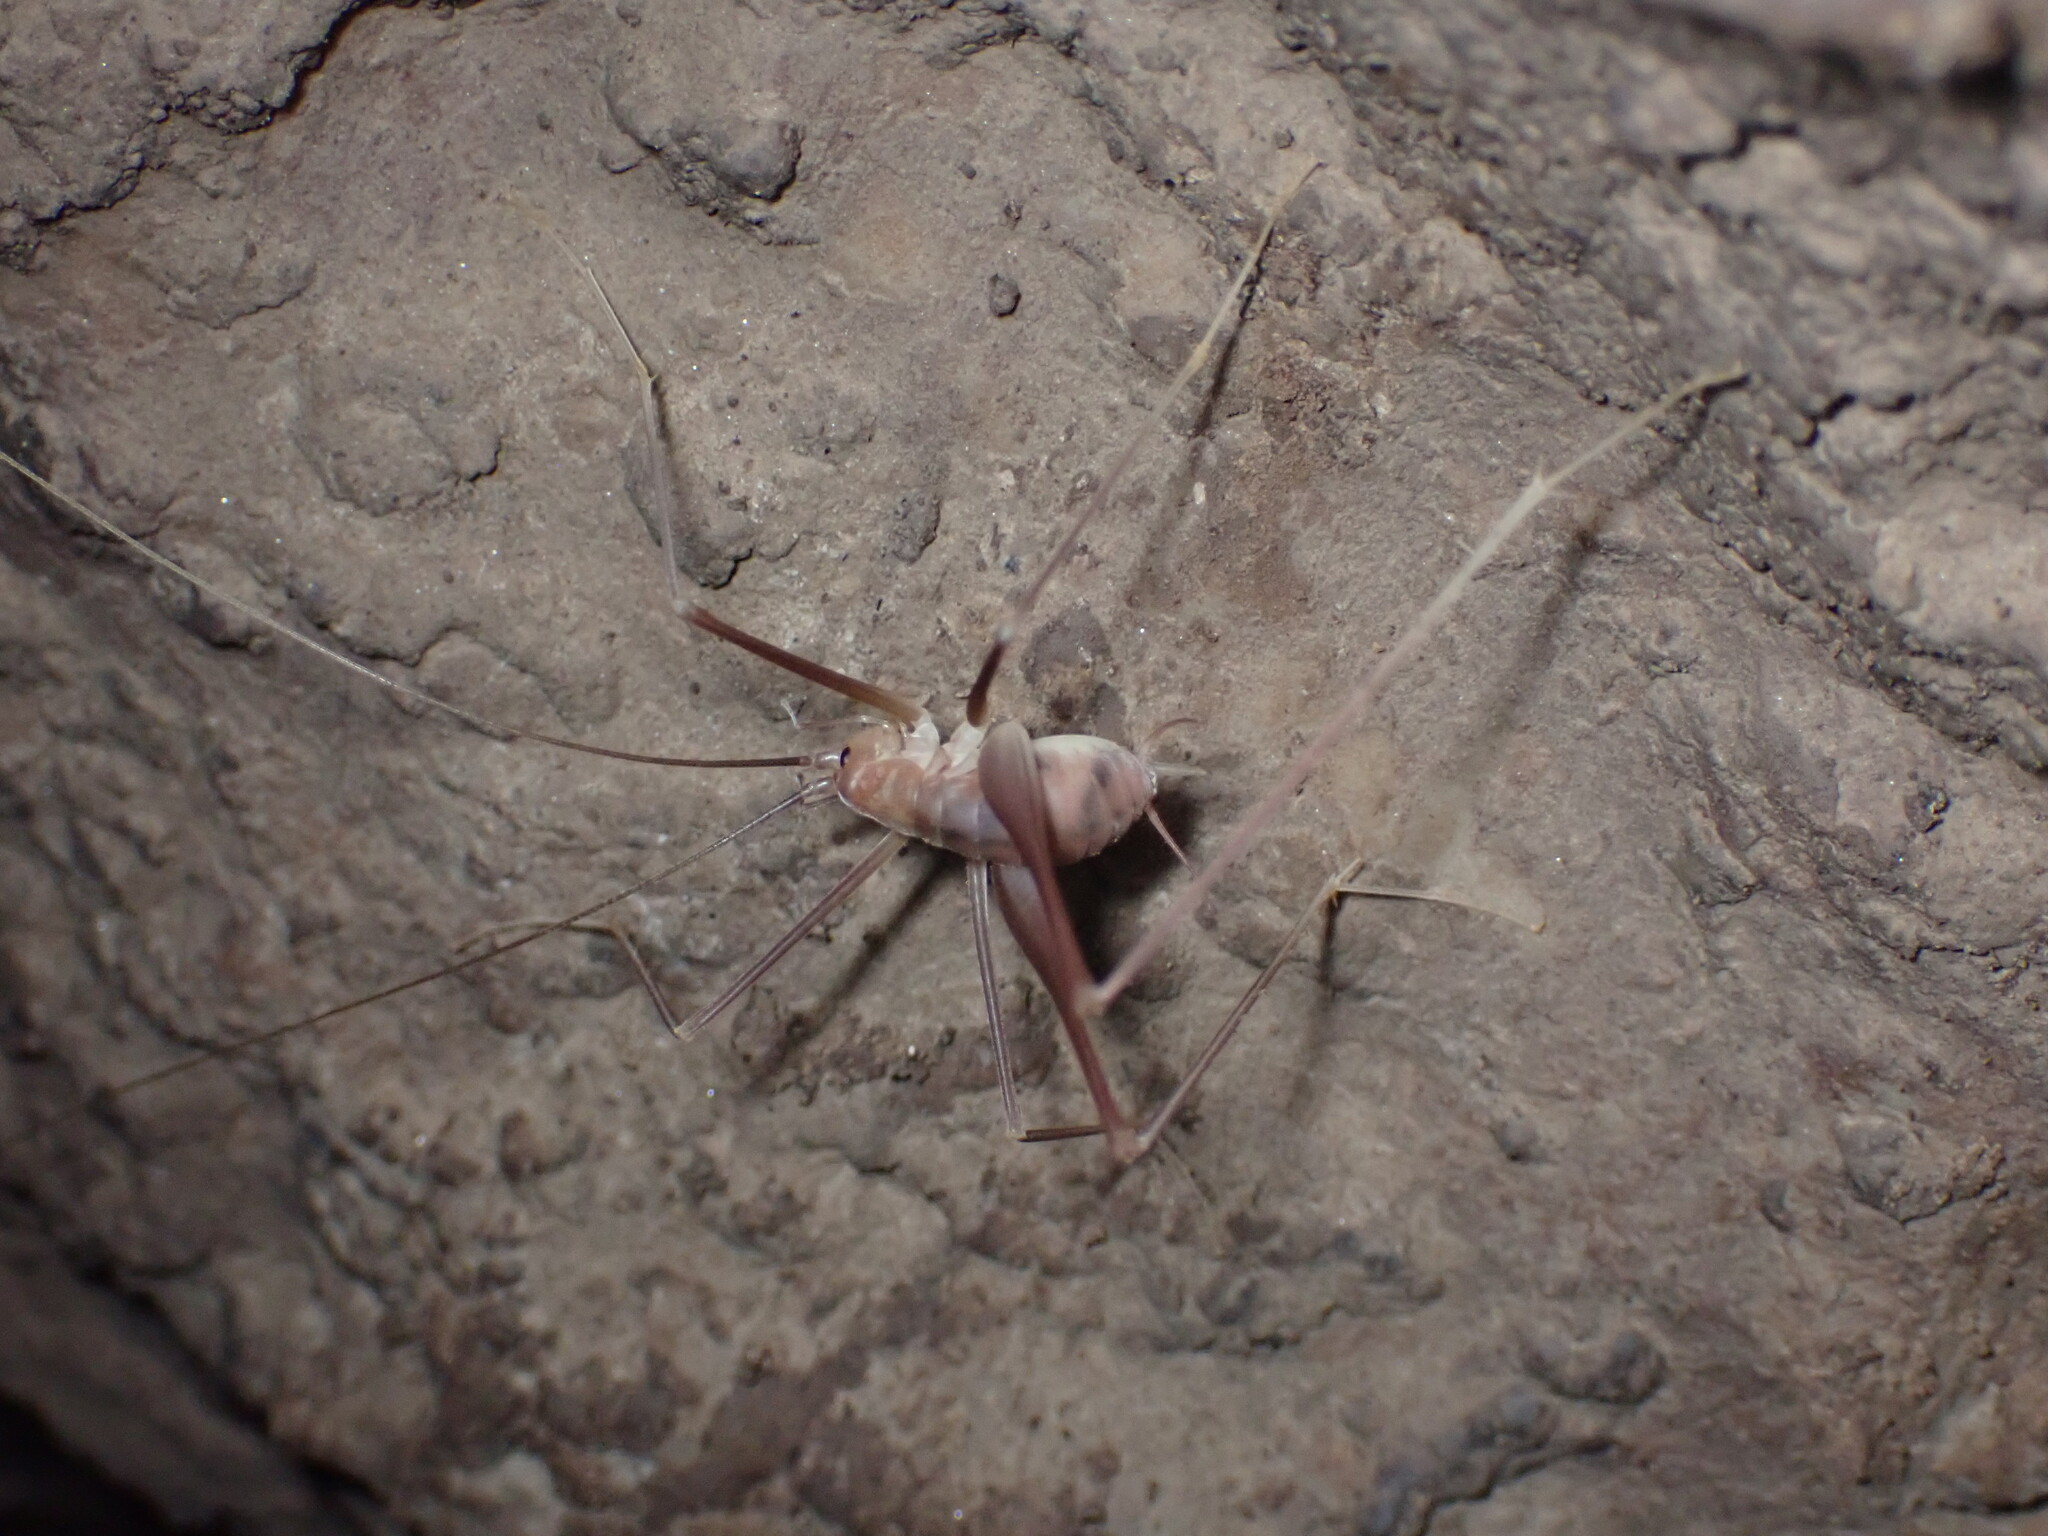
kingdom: Animalia
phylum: Arthropoda
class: Insecta
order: Orthoptera
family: Rhaphidophoridae
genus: Hadenoecus
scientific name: Hadenoecus jonesi
